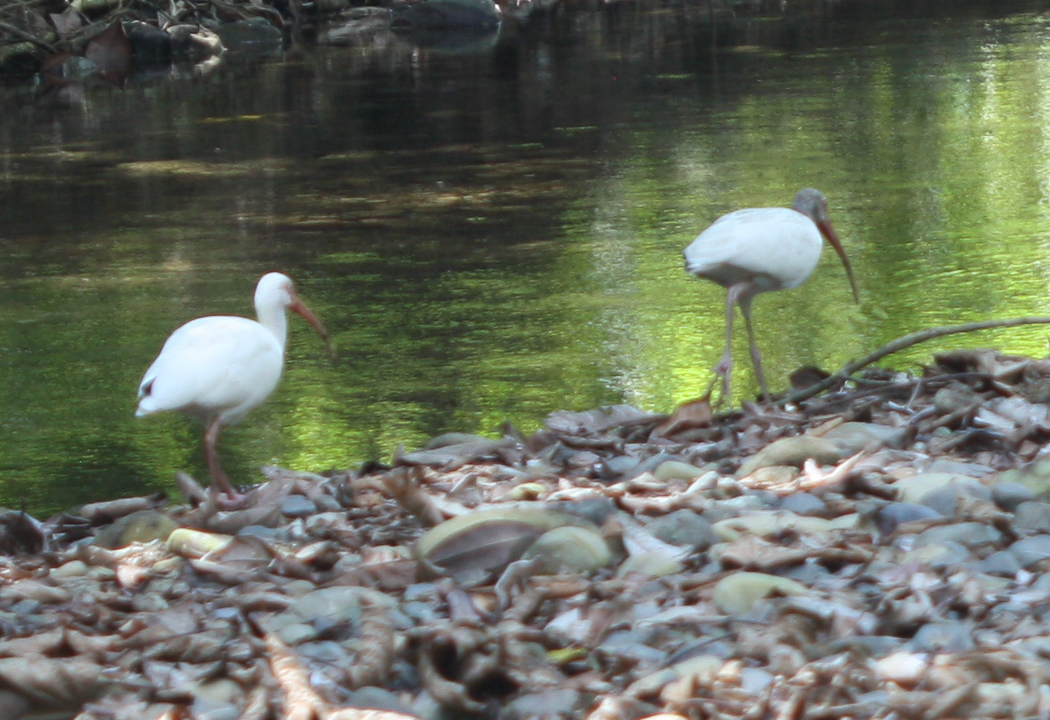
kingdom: Animalia
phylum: Chordata
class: Aves
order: Pelecaniformes
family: Threskiornithidae
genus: Eudocimus
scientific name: Eudocimus albus
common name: White ibis
